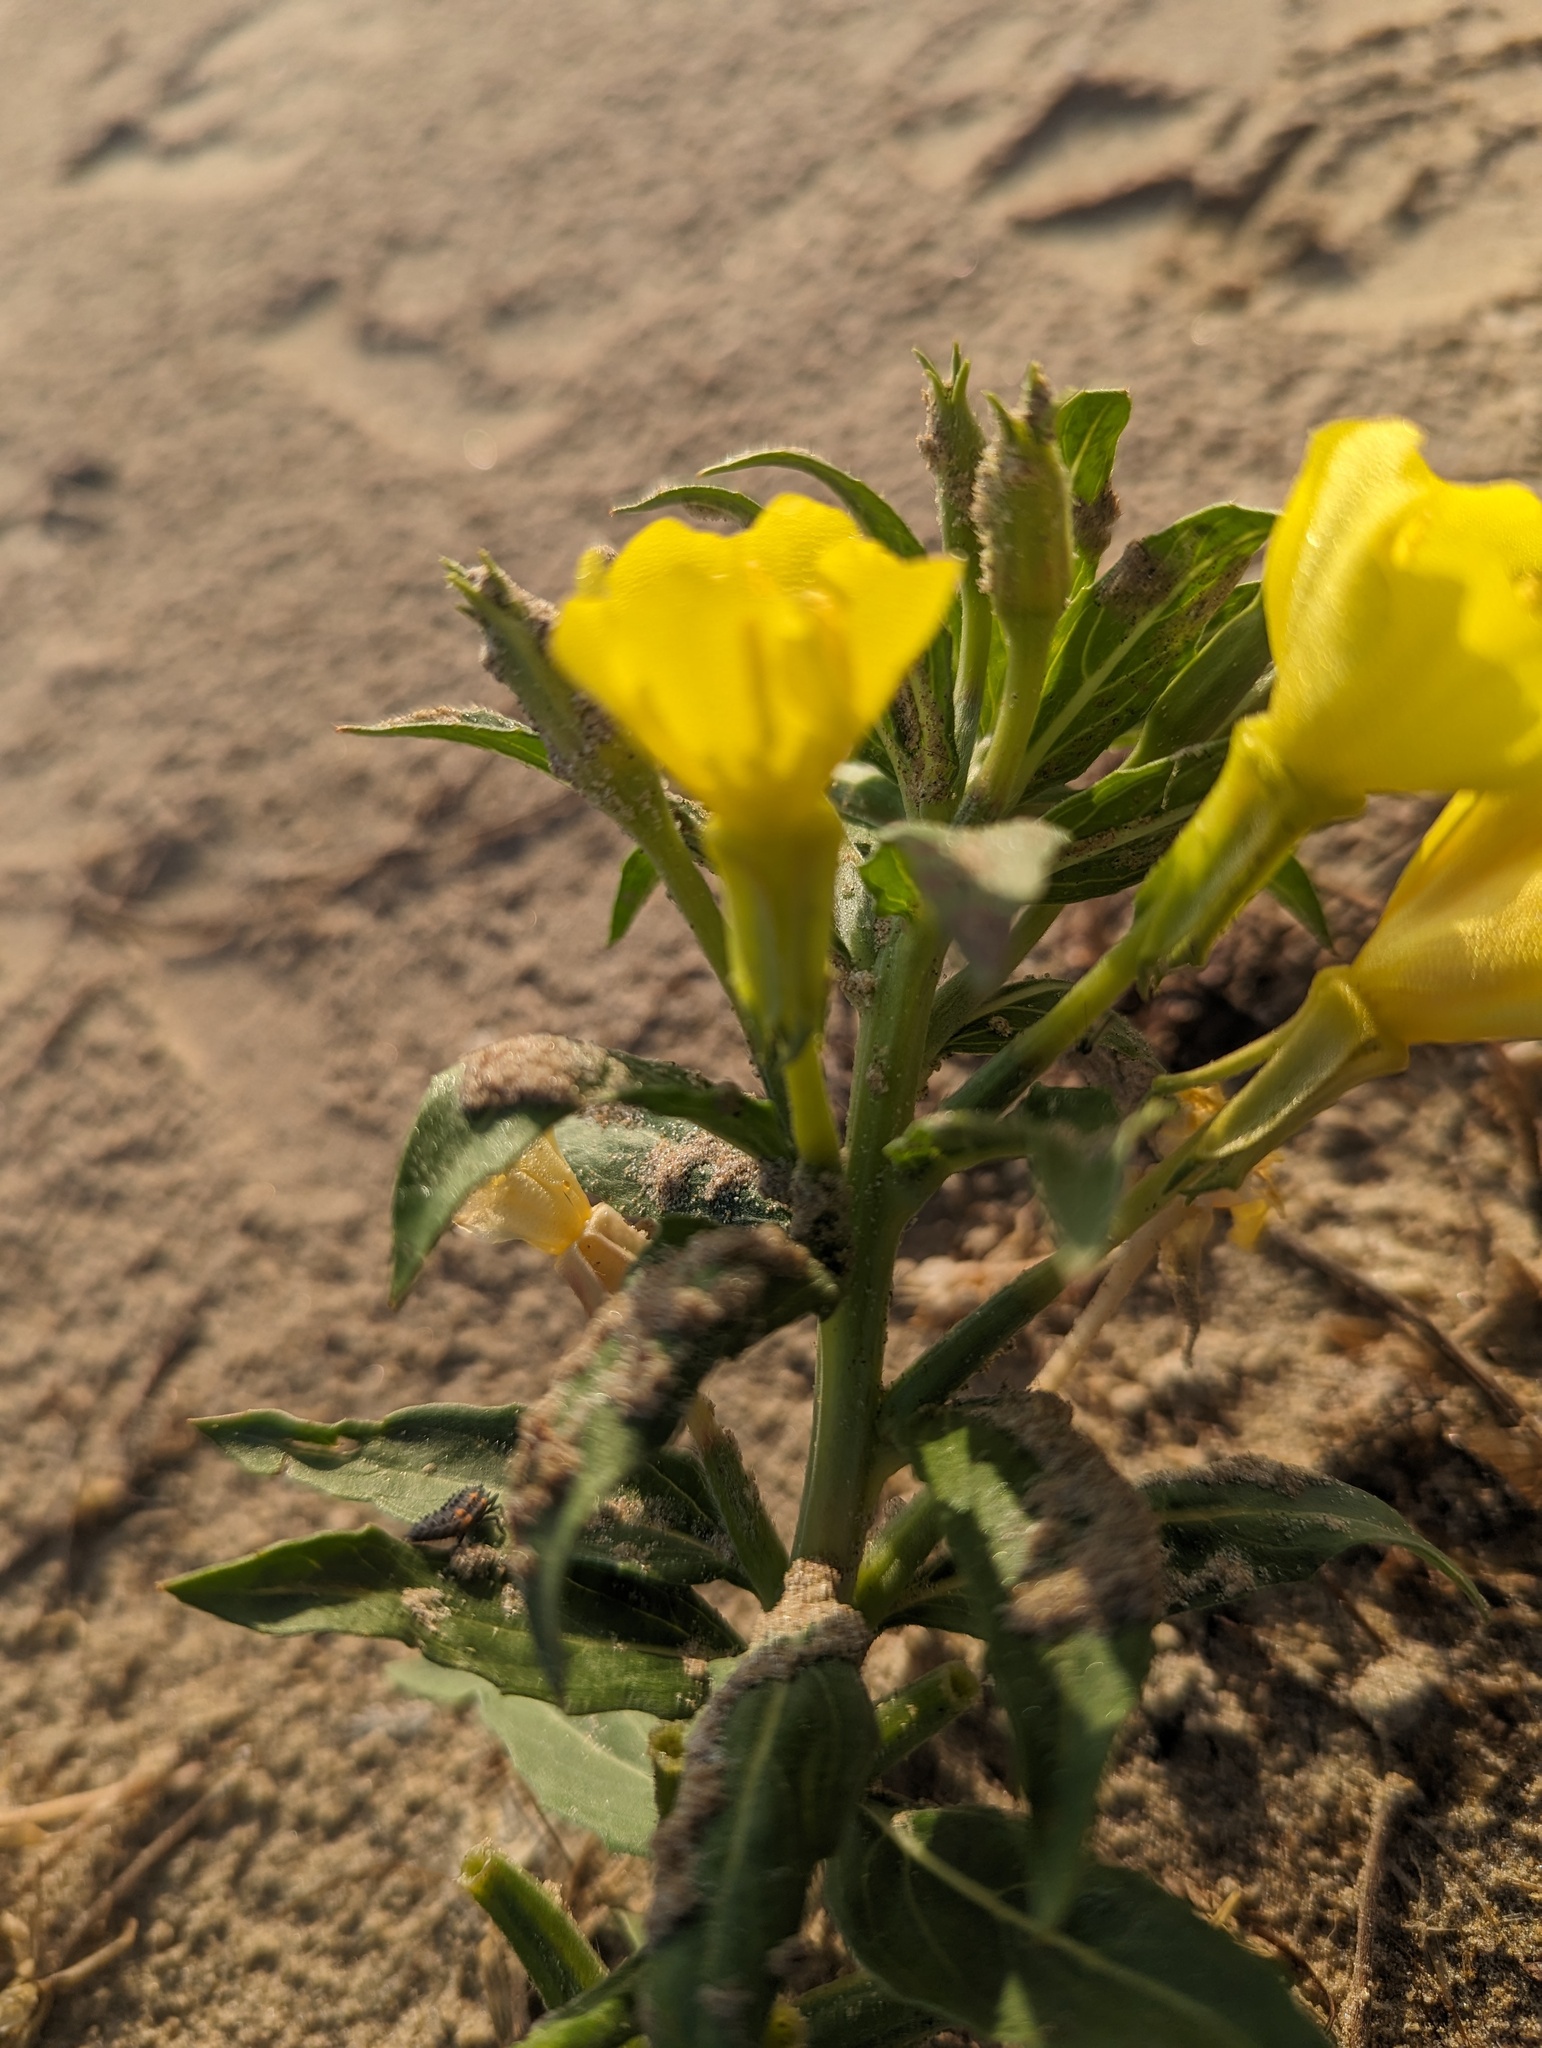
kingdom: Plantae
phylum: Tracheophyta
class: Magnoliopsida
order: Myrtales
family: Onagraceae
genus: Oenothera
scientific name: Oenothera oakesiana
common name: Oakes' evening-primrose
